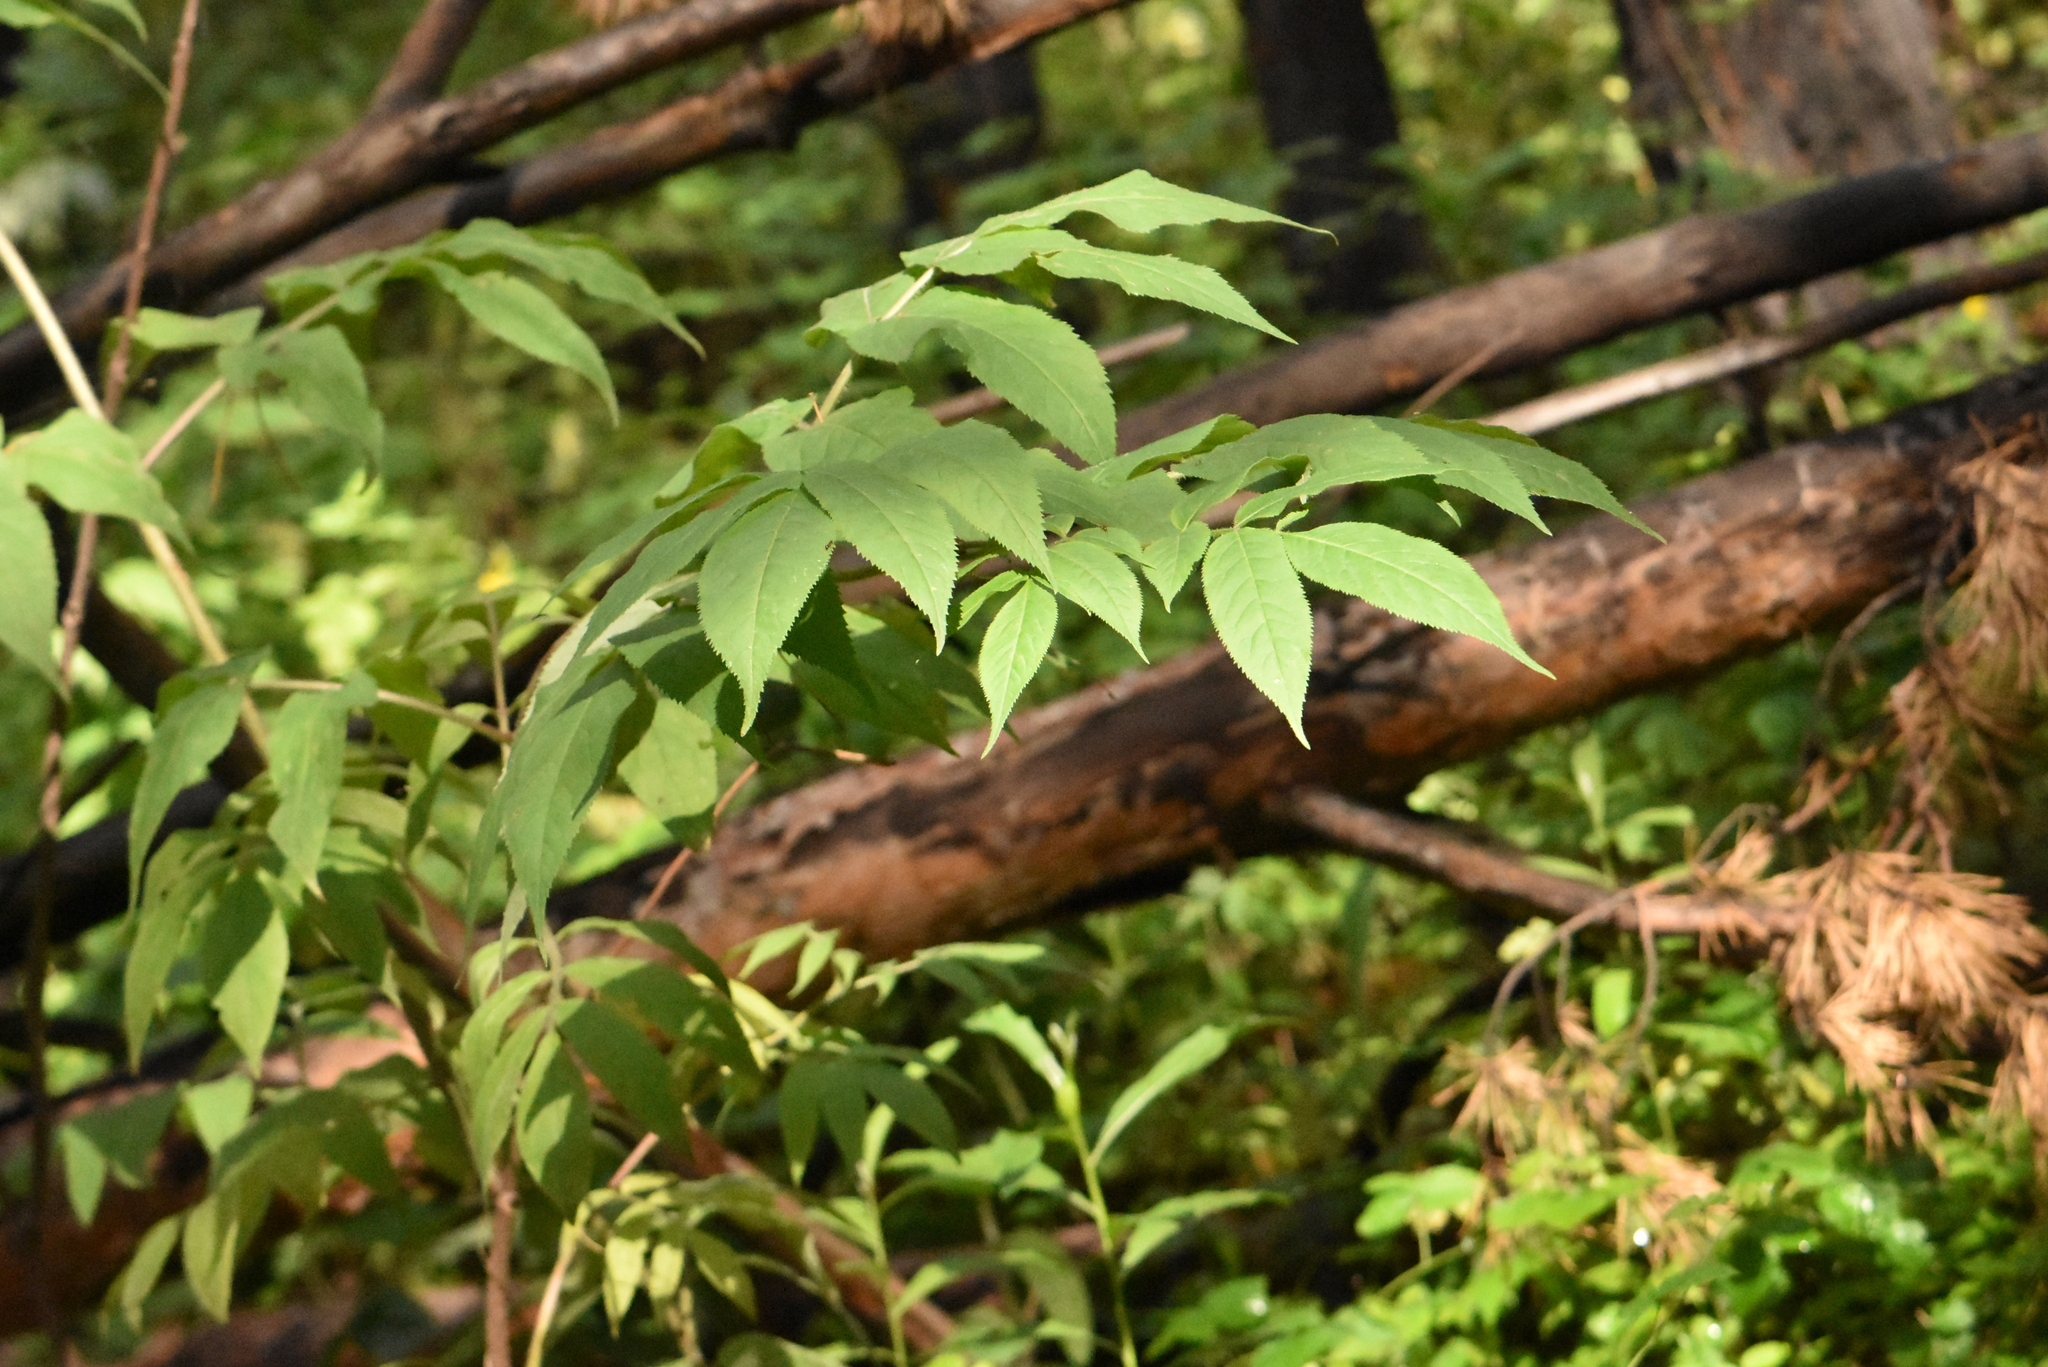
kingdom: Plantae
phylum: Tracheophyta
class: Magnoliopsida
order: Dipsacales
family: Viburnaceae
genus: Sambucus
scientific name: Sambucus sibirica
